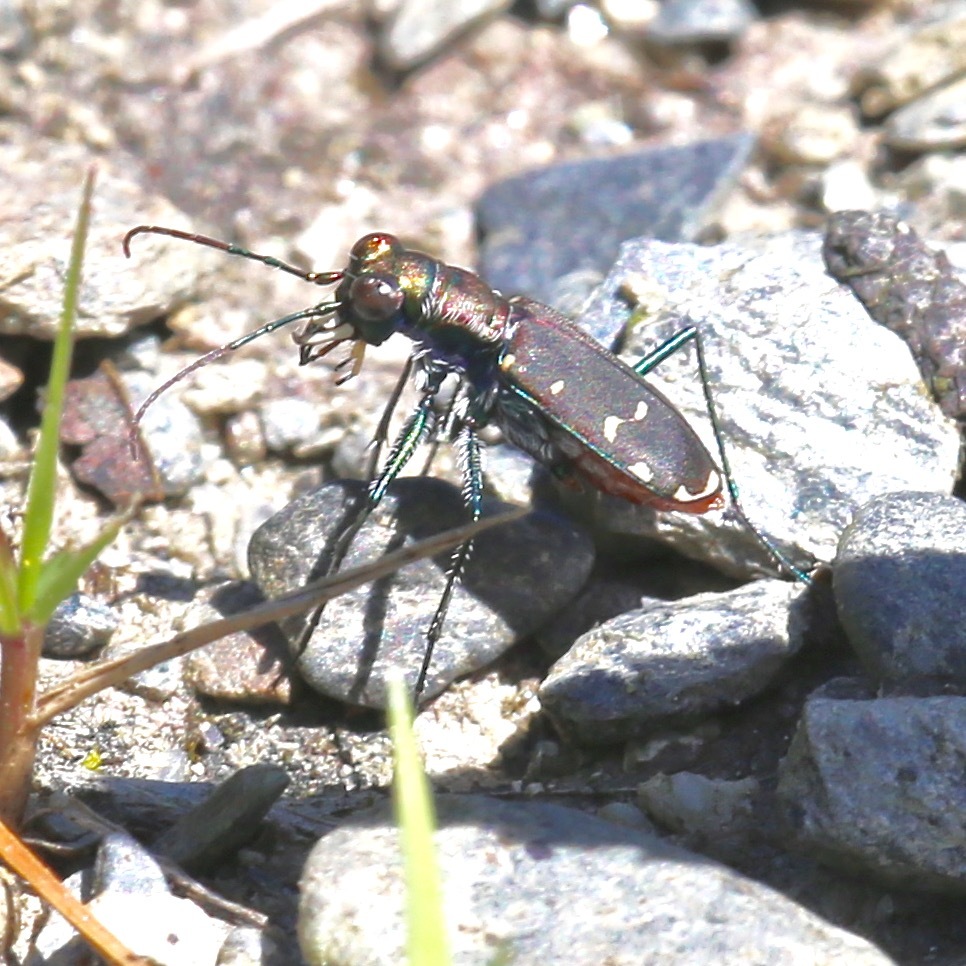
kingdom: Animalia
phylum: Arthropoda
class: Insecta
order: Coleoptera
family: Carabidae
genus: Cicindela
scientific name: Cicindela rufiventris
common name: Eastern red-bellied tiger beetle
